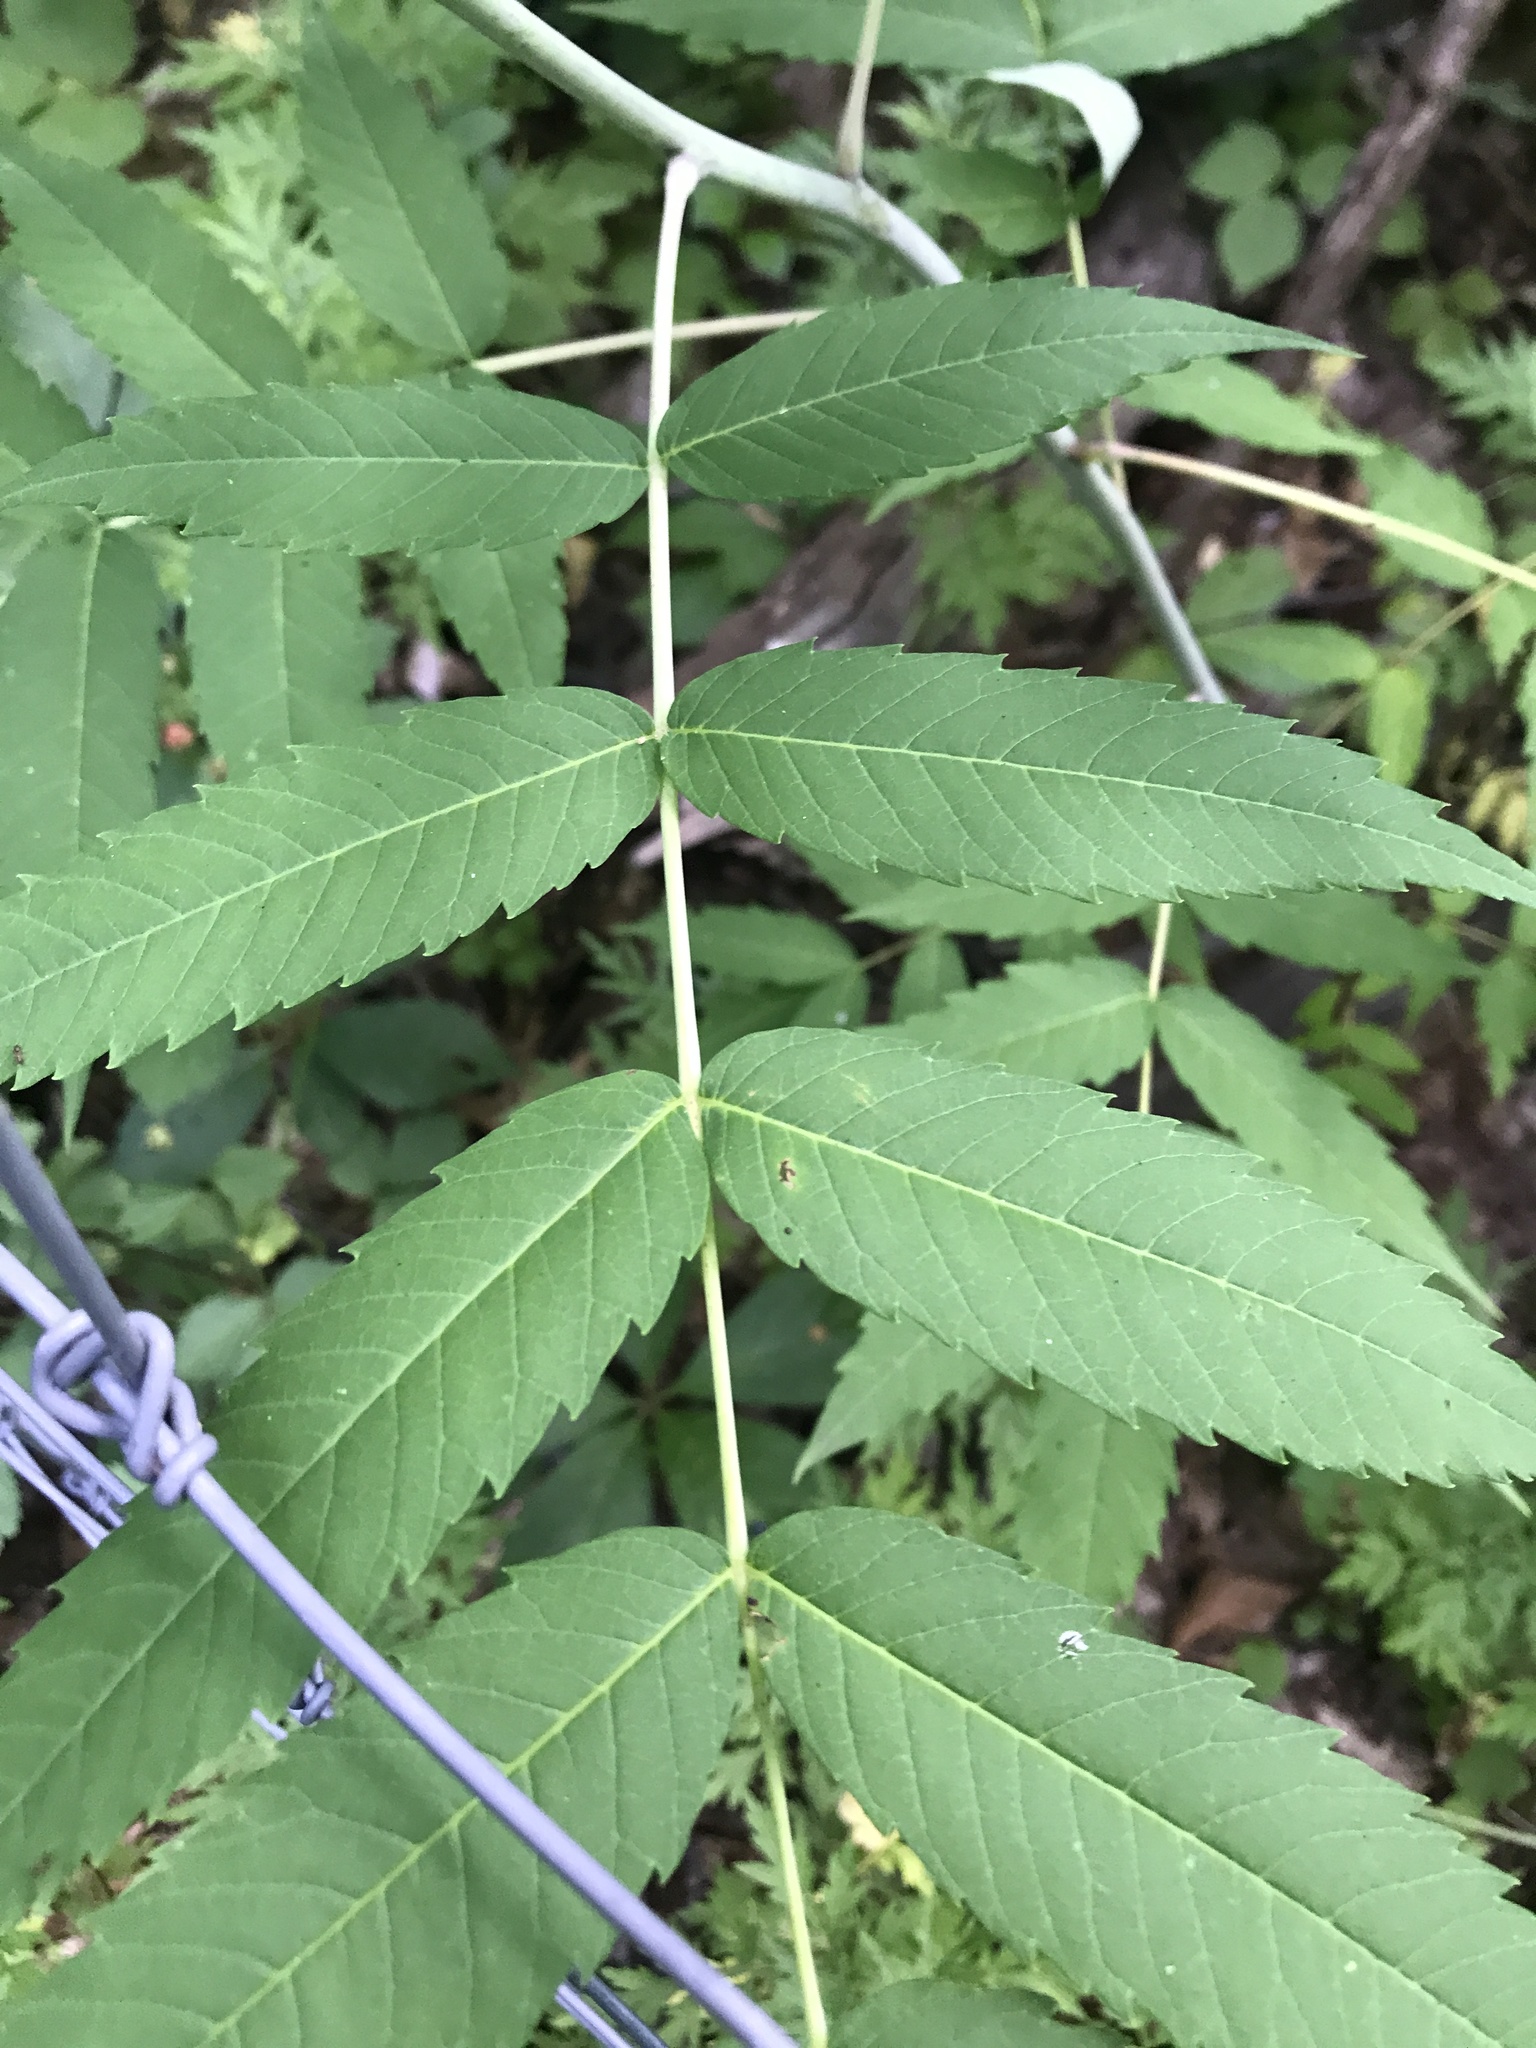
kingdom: Plantae
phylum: Tracheophyta
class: Magnoliopsida
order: Sapindales
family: Anacardiaceae
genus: Rhus
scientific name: Rhus glabra
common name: Scarlet sumac
